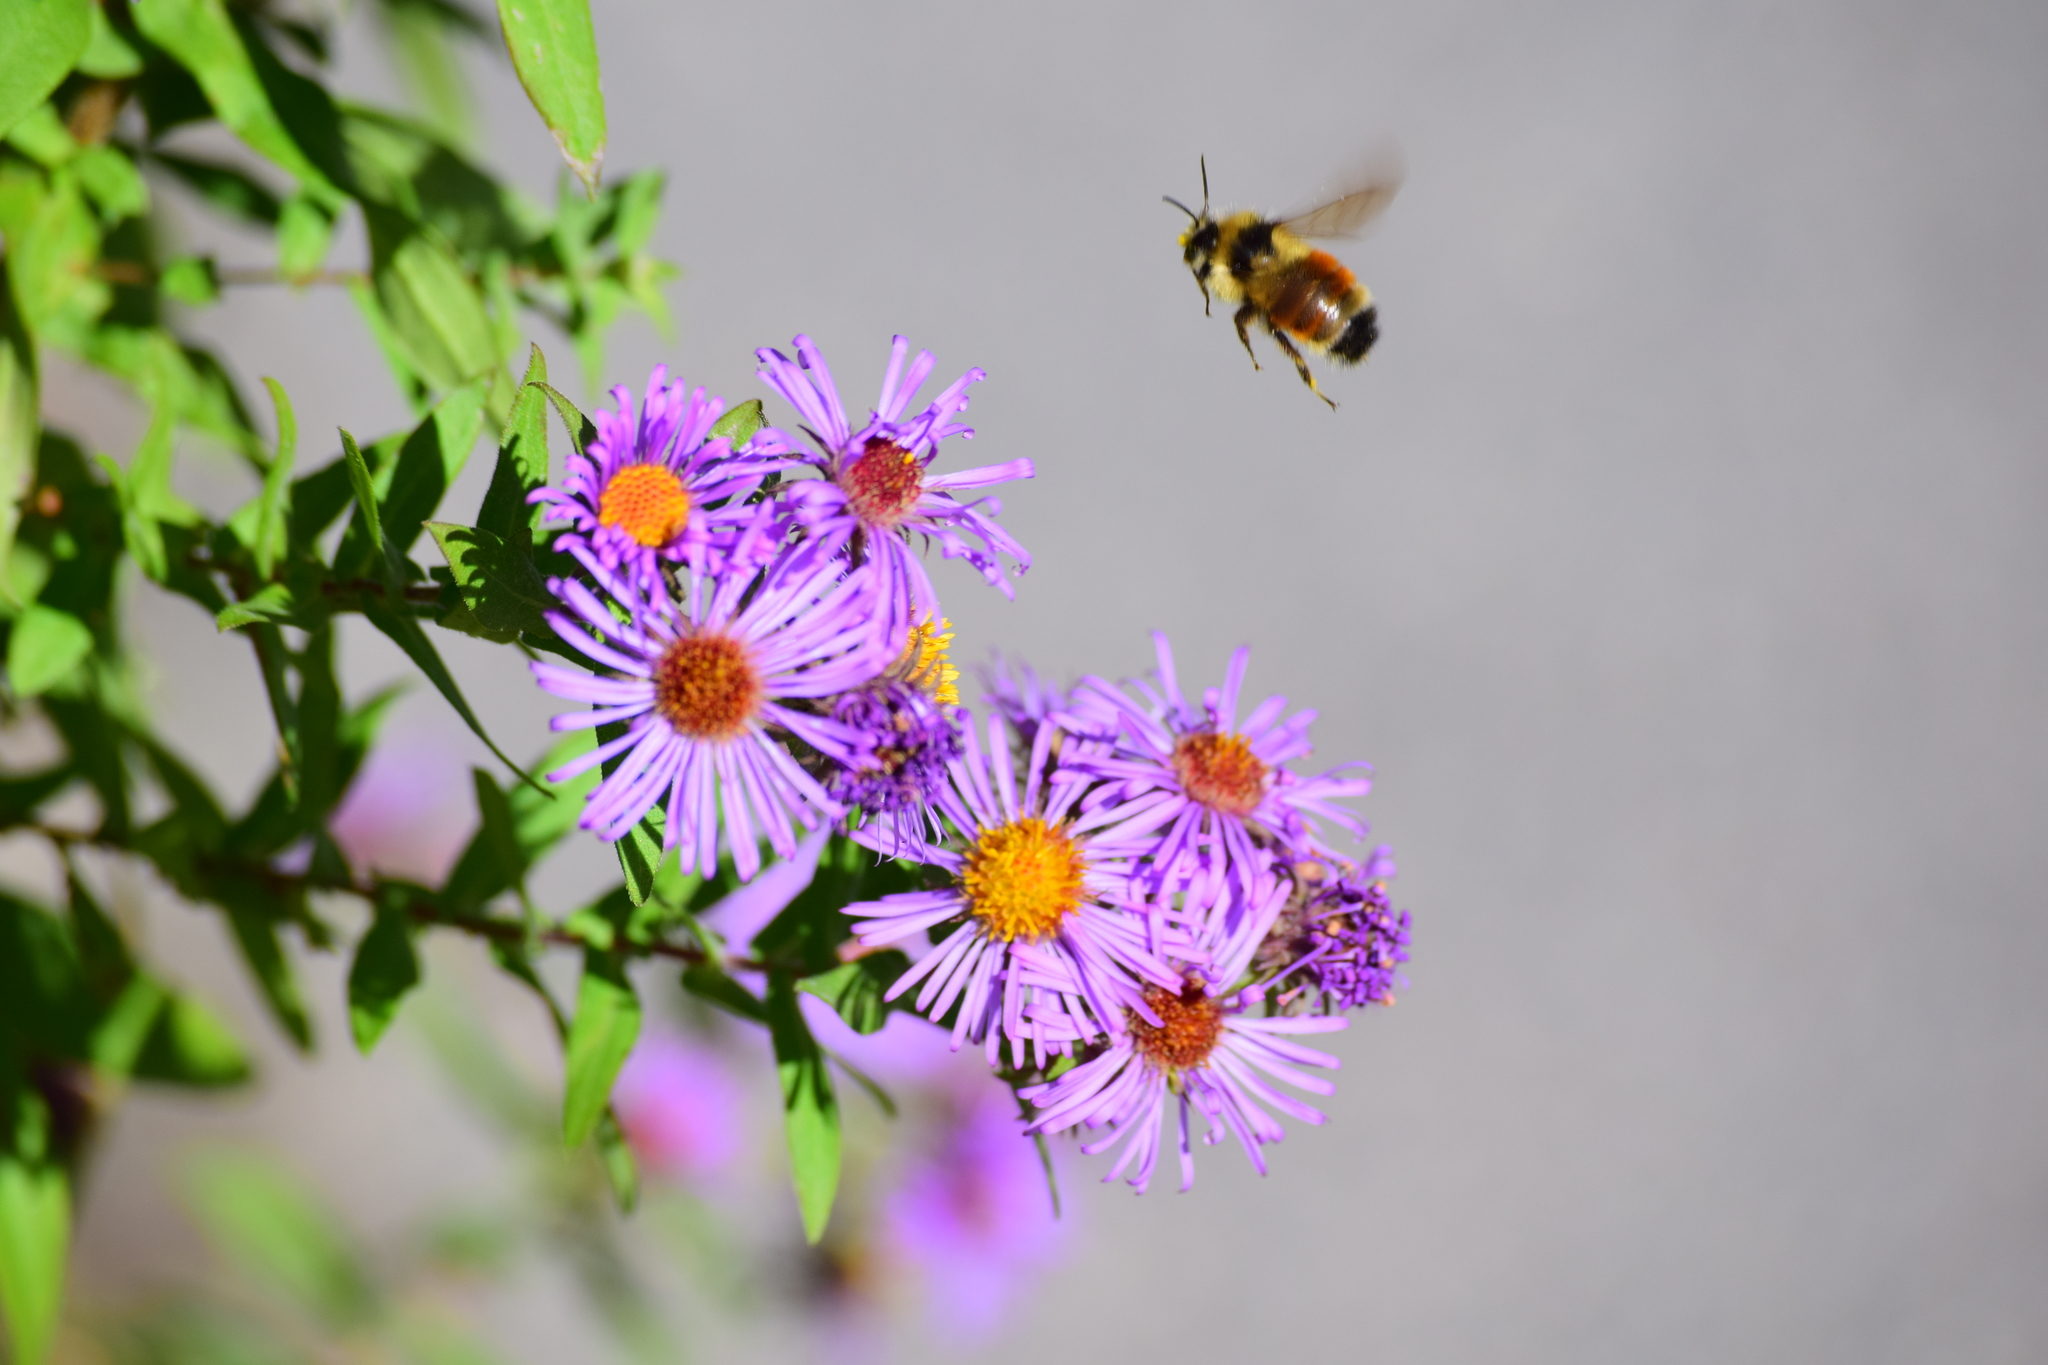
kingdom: Animalia
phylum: Arthropoda
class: Insecta
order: Hymenoptera
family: Apidae
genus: Bombus
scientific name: Bombus ternarius
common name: Tri-colored bumble bee
